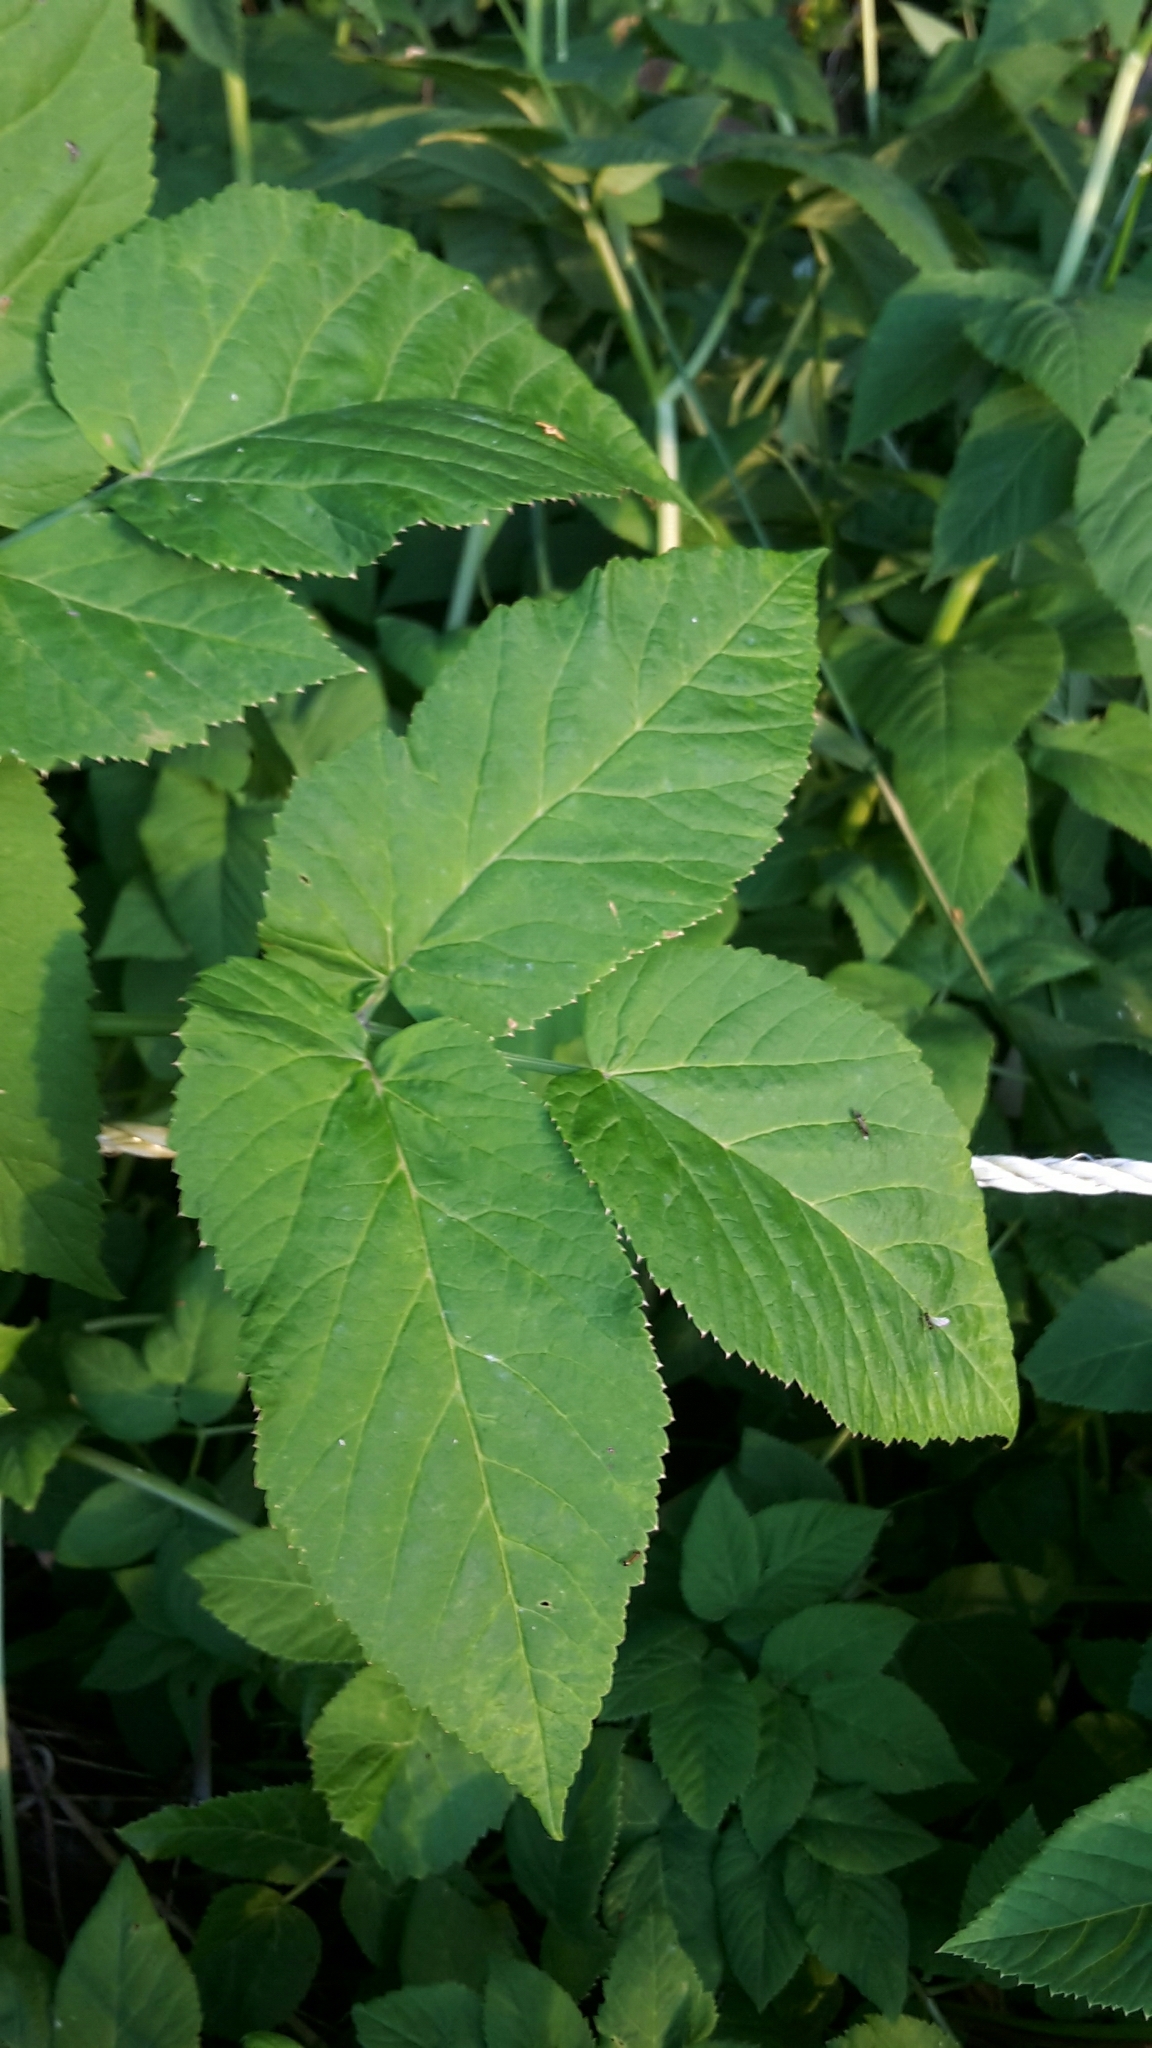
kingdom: Plantae
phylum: Tracheophyta
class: Magnoliopsida
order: Apiales
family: Apiaceae
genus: Aegopodium
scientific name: Aegopodium podagraria
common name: Ground-elder
